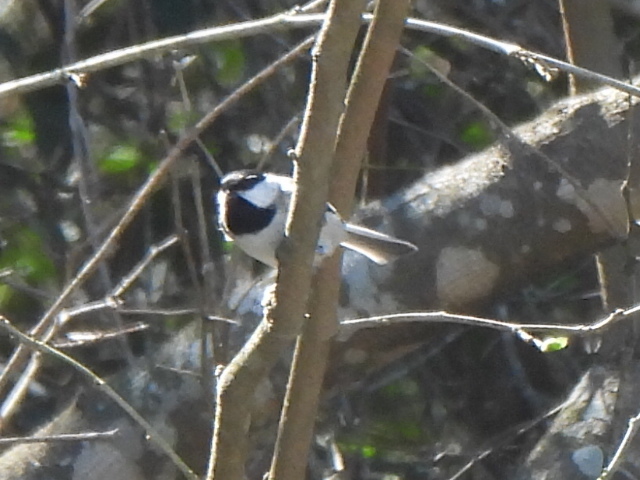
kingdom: Animalia
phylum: Chordata
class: Aves
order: Passeriformes
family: Paridae
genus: Poecile
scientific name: Poecile carolinensis
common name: Carolina chickadee
